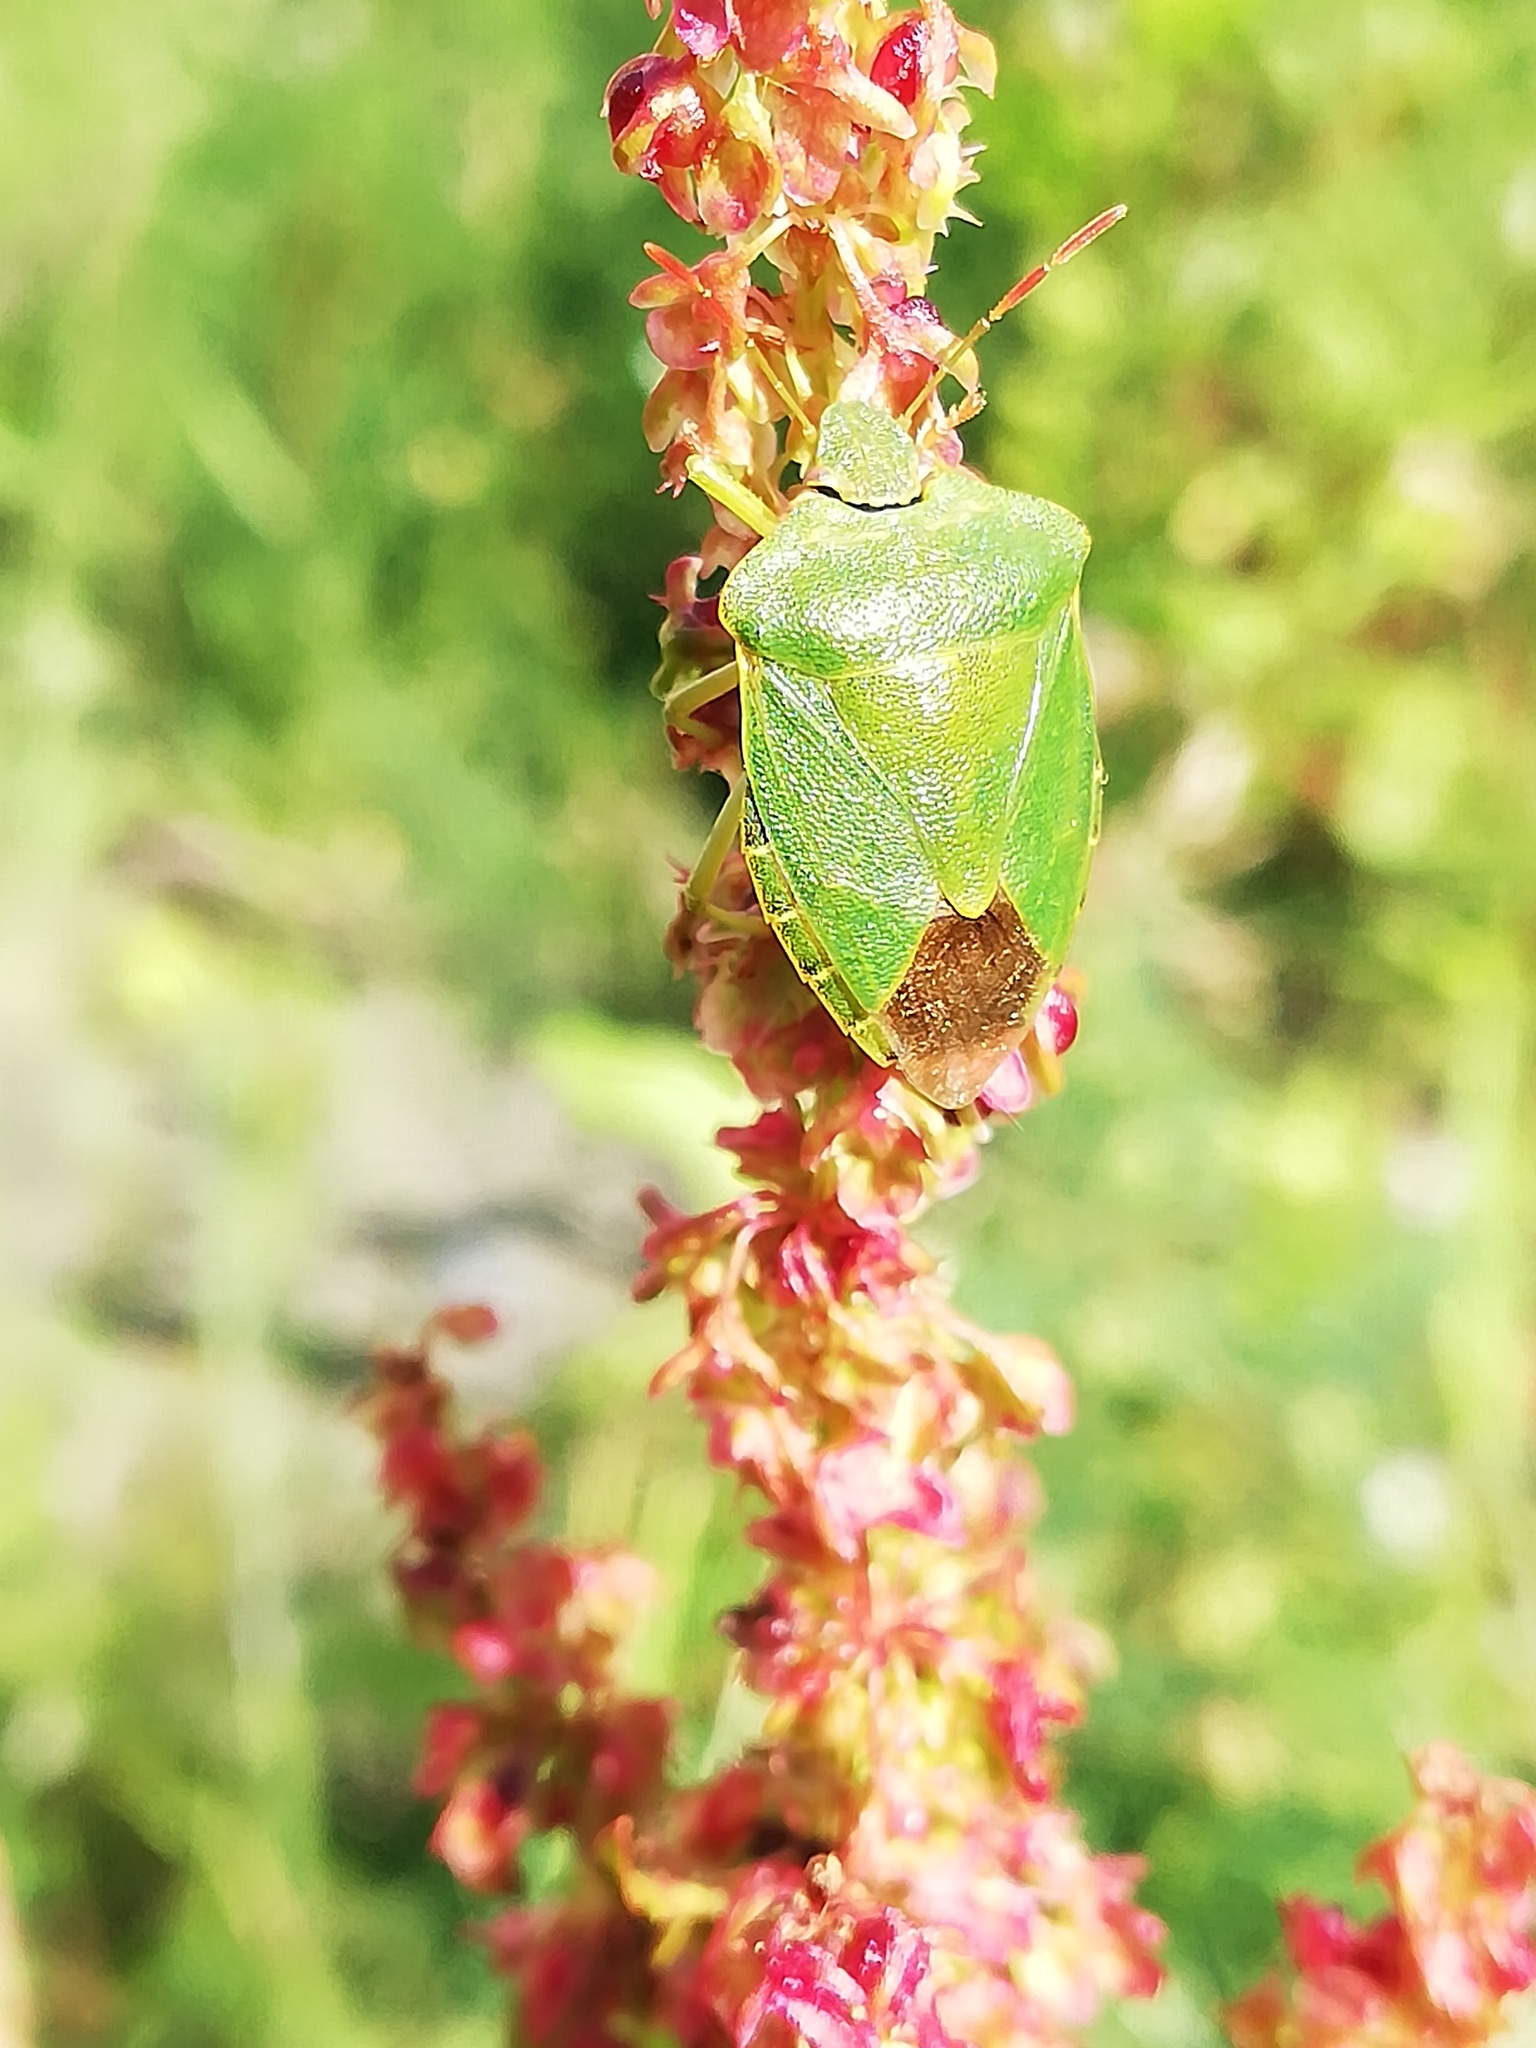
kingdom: Animalia
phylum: Arthropoda
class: Insecta
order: Hemiptera
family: Pentatomidae
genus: Palomena
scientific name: Palomena prasina
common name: Green shieldbug
